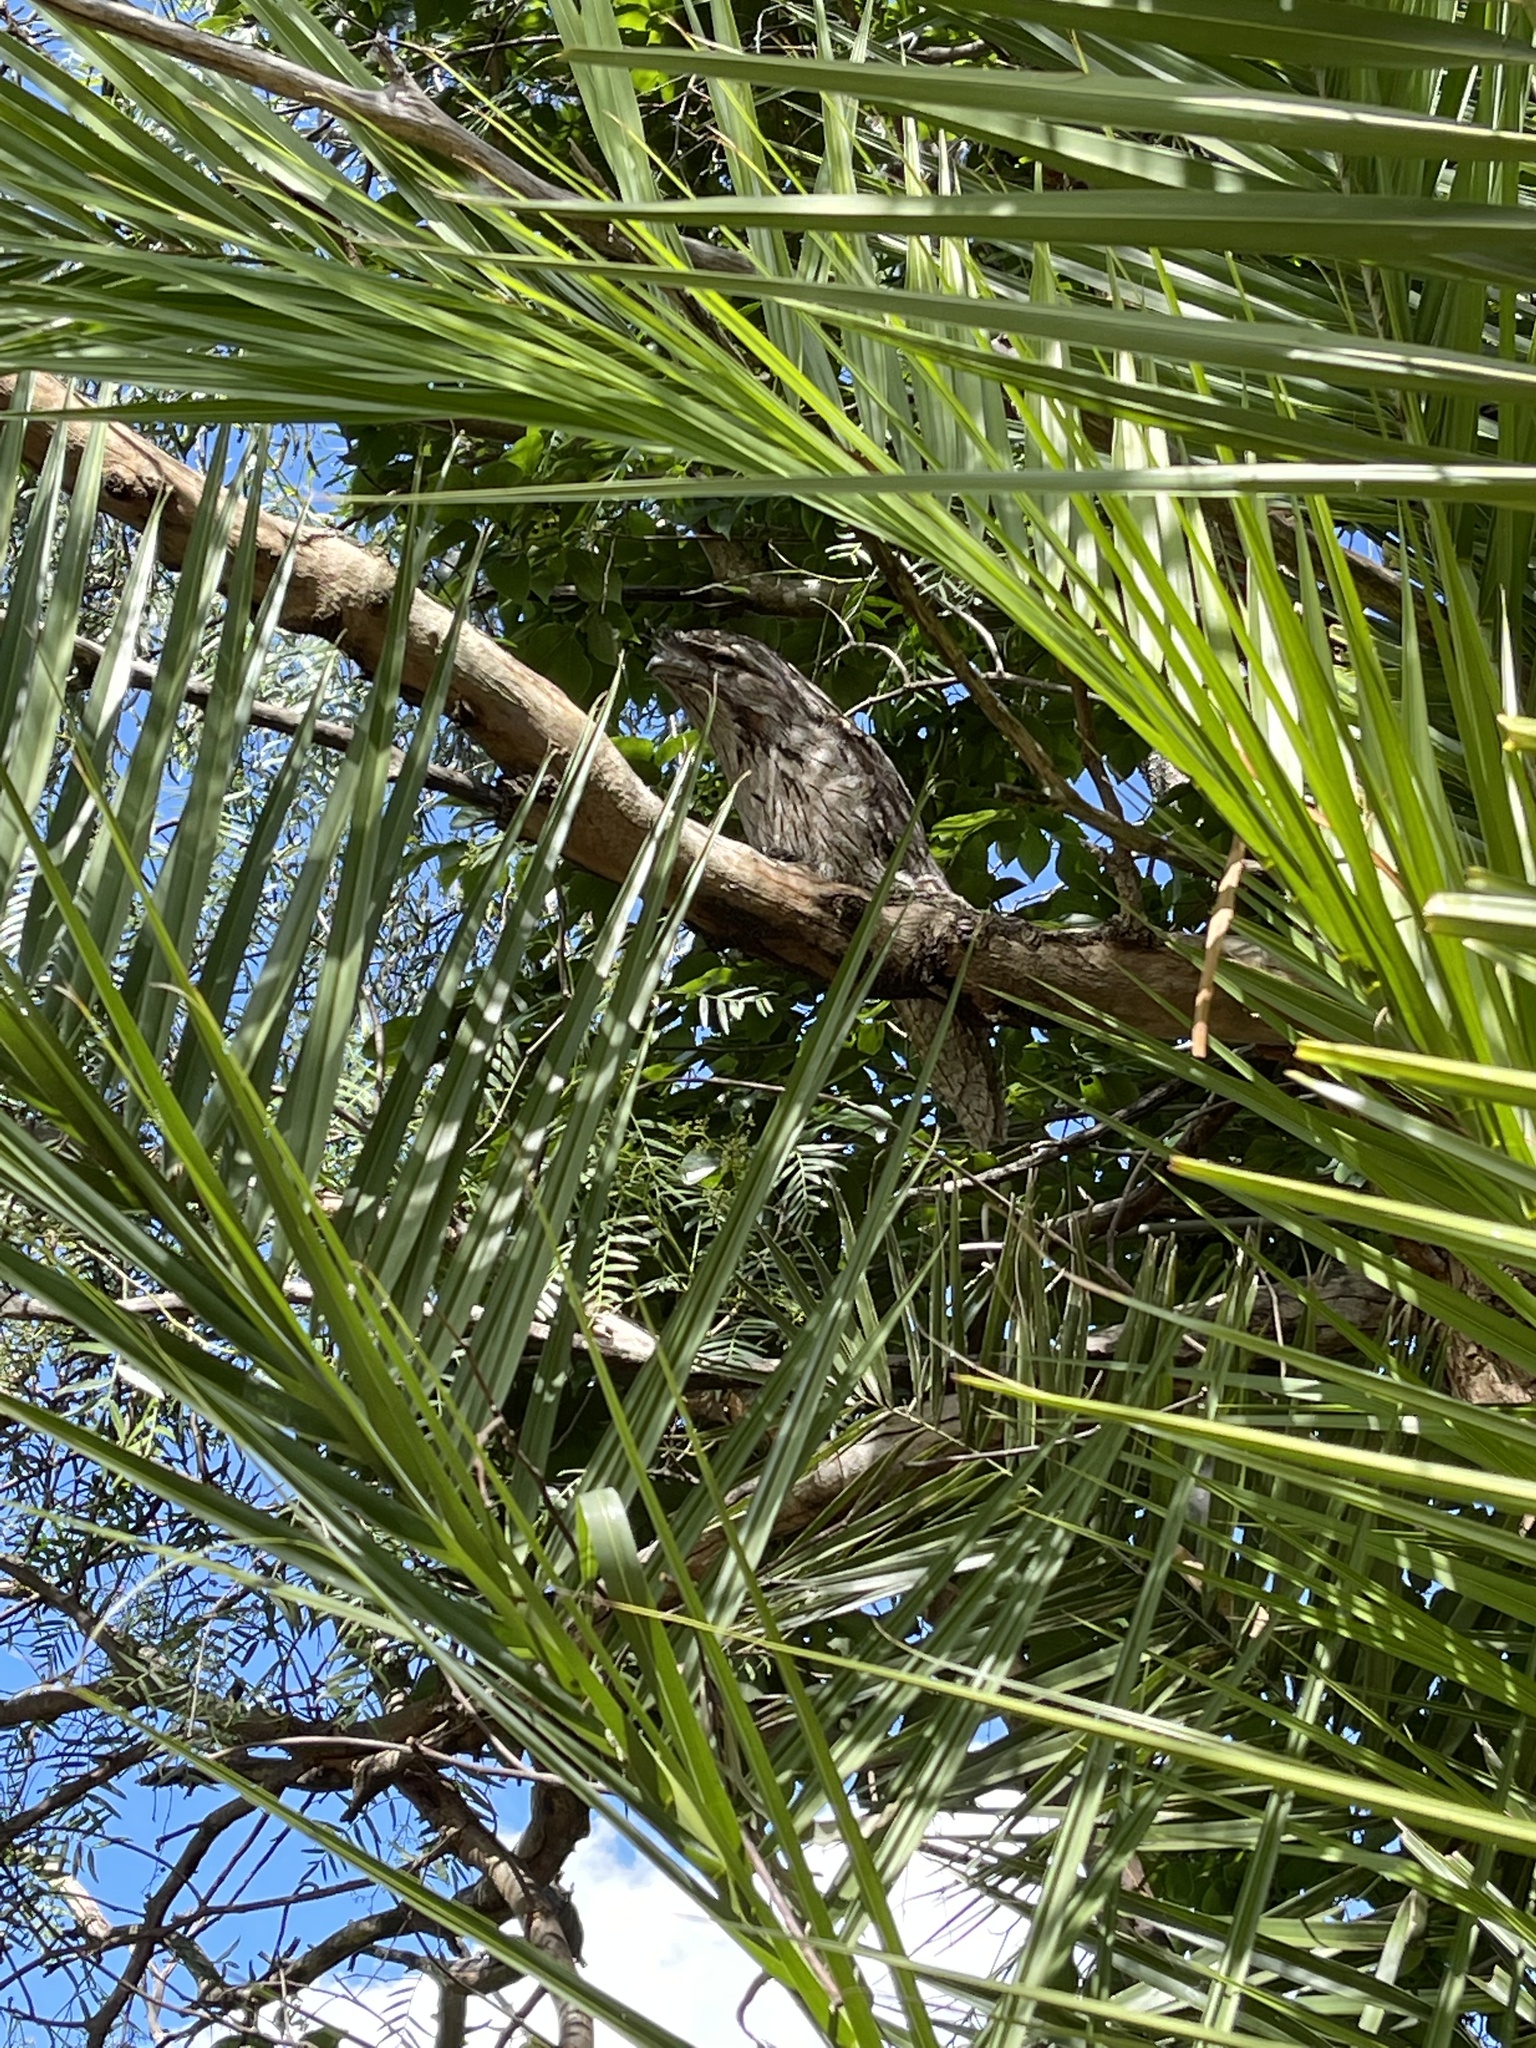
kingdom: Animalia
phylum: Chordata
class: Aves
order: Caprimulgiformes
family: Podargidae
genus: Podargus
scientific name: Podargus strigoides
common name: Tawny frogmouth
